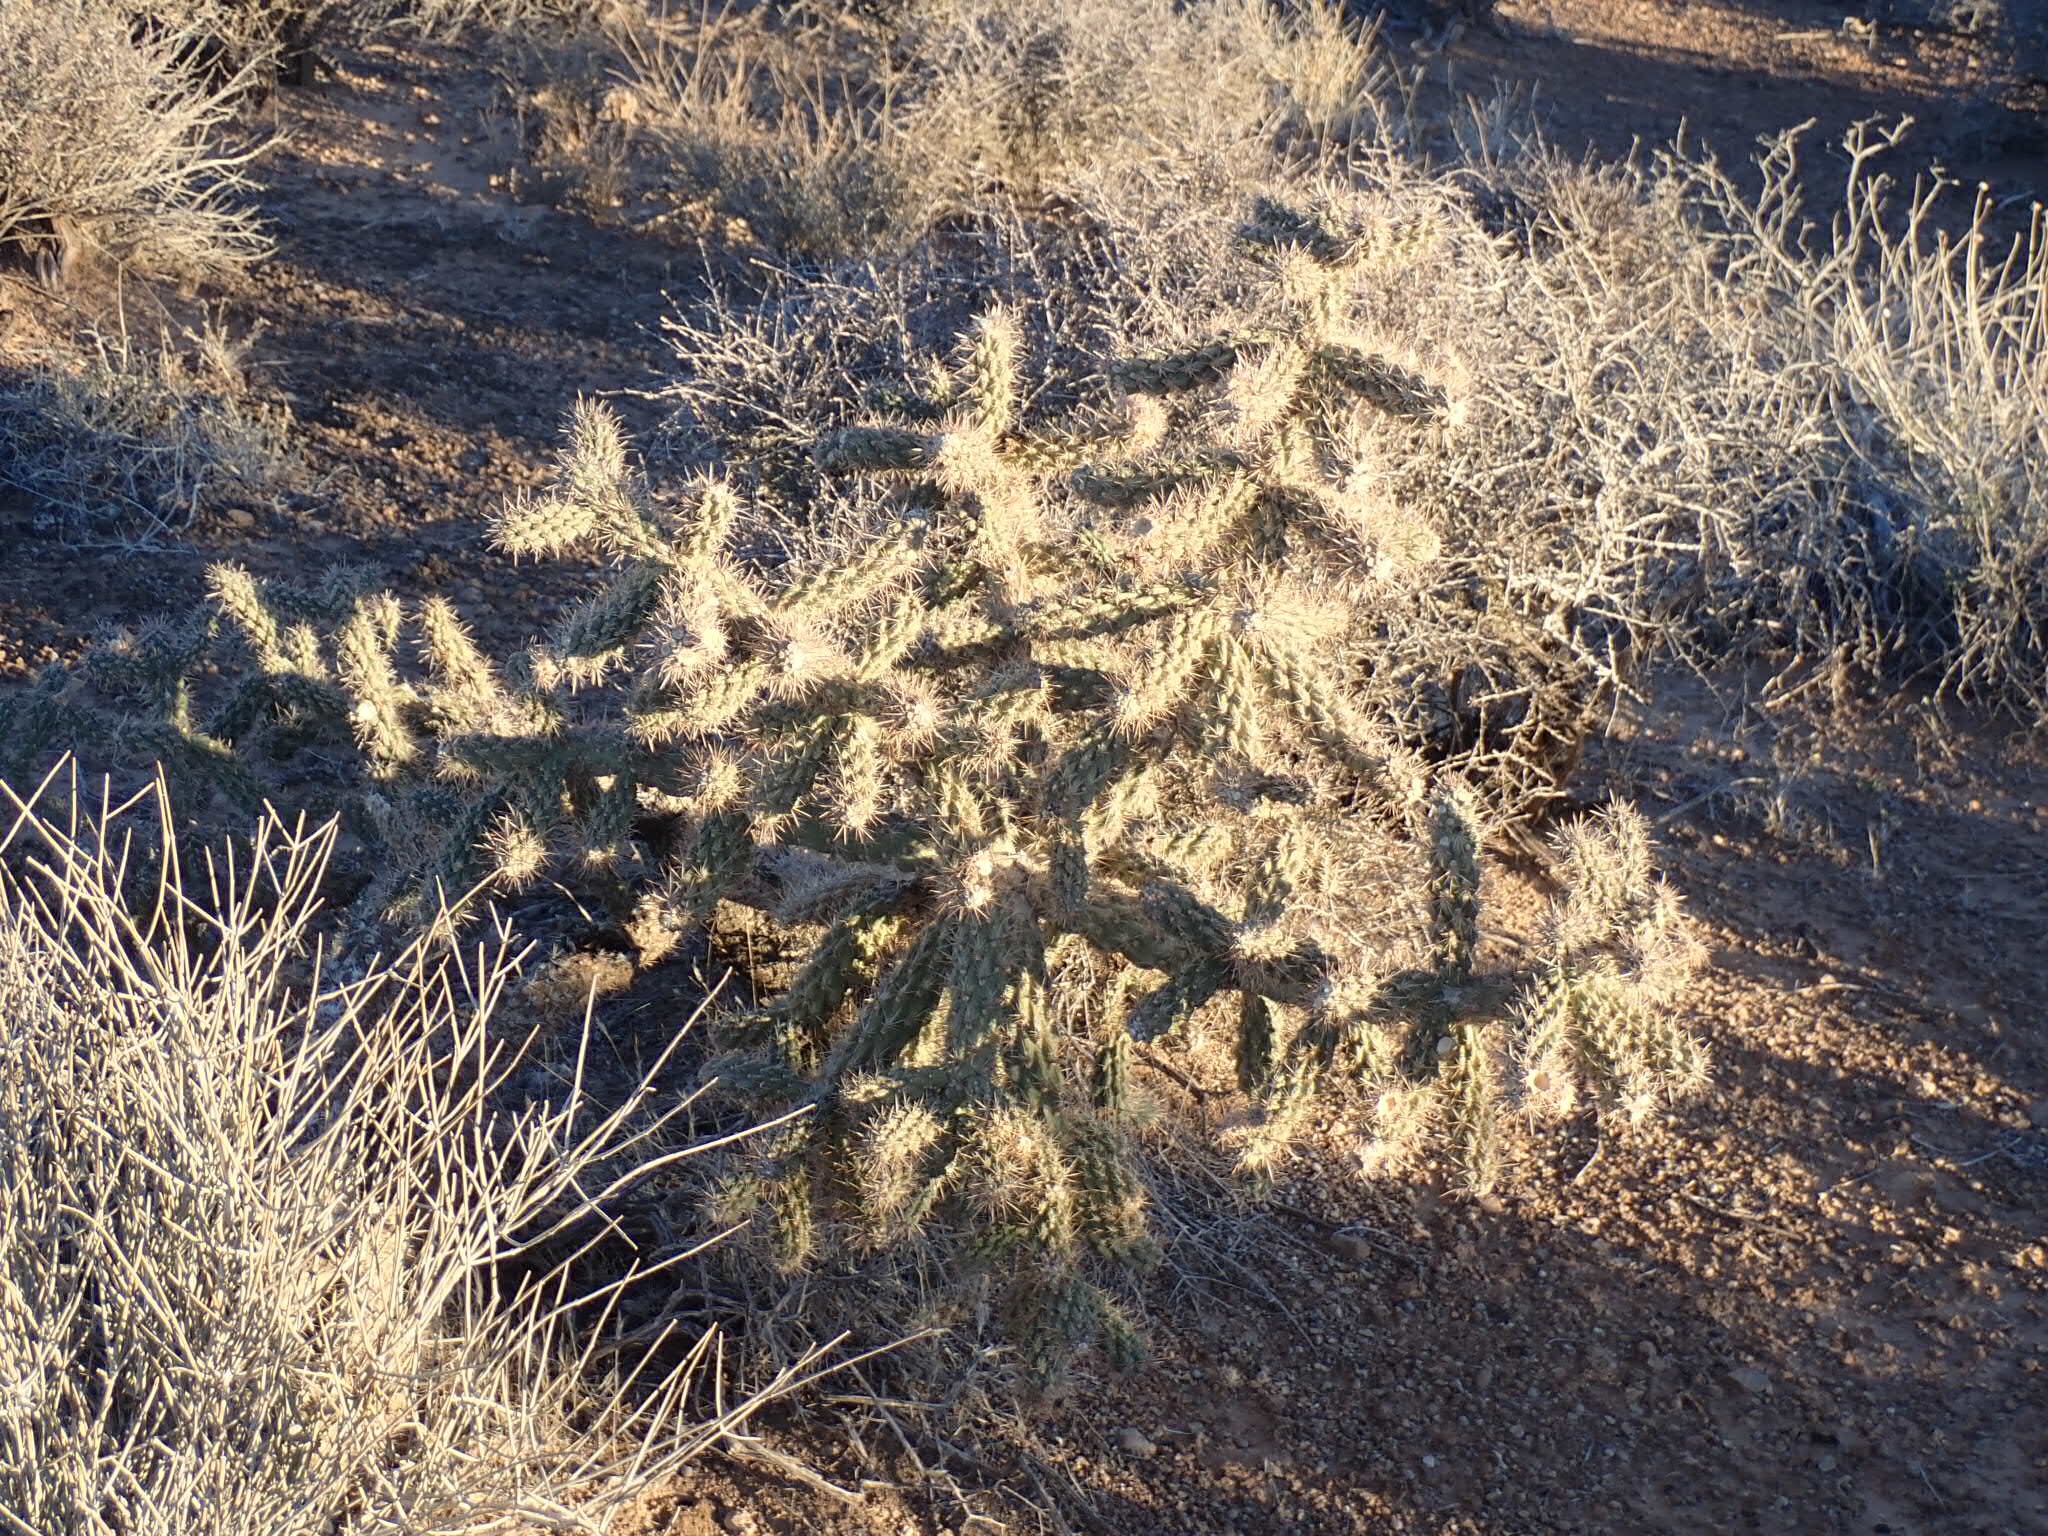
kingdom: Plantae
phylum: Tracheophyta
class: Magnoliopsida
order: Caryophyllales
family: Cactaceae
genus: Cylindropuntia
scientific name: Cylindropuntia echinocarpa
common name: Ground cholla
